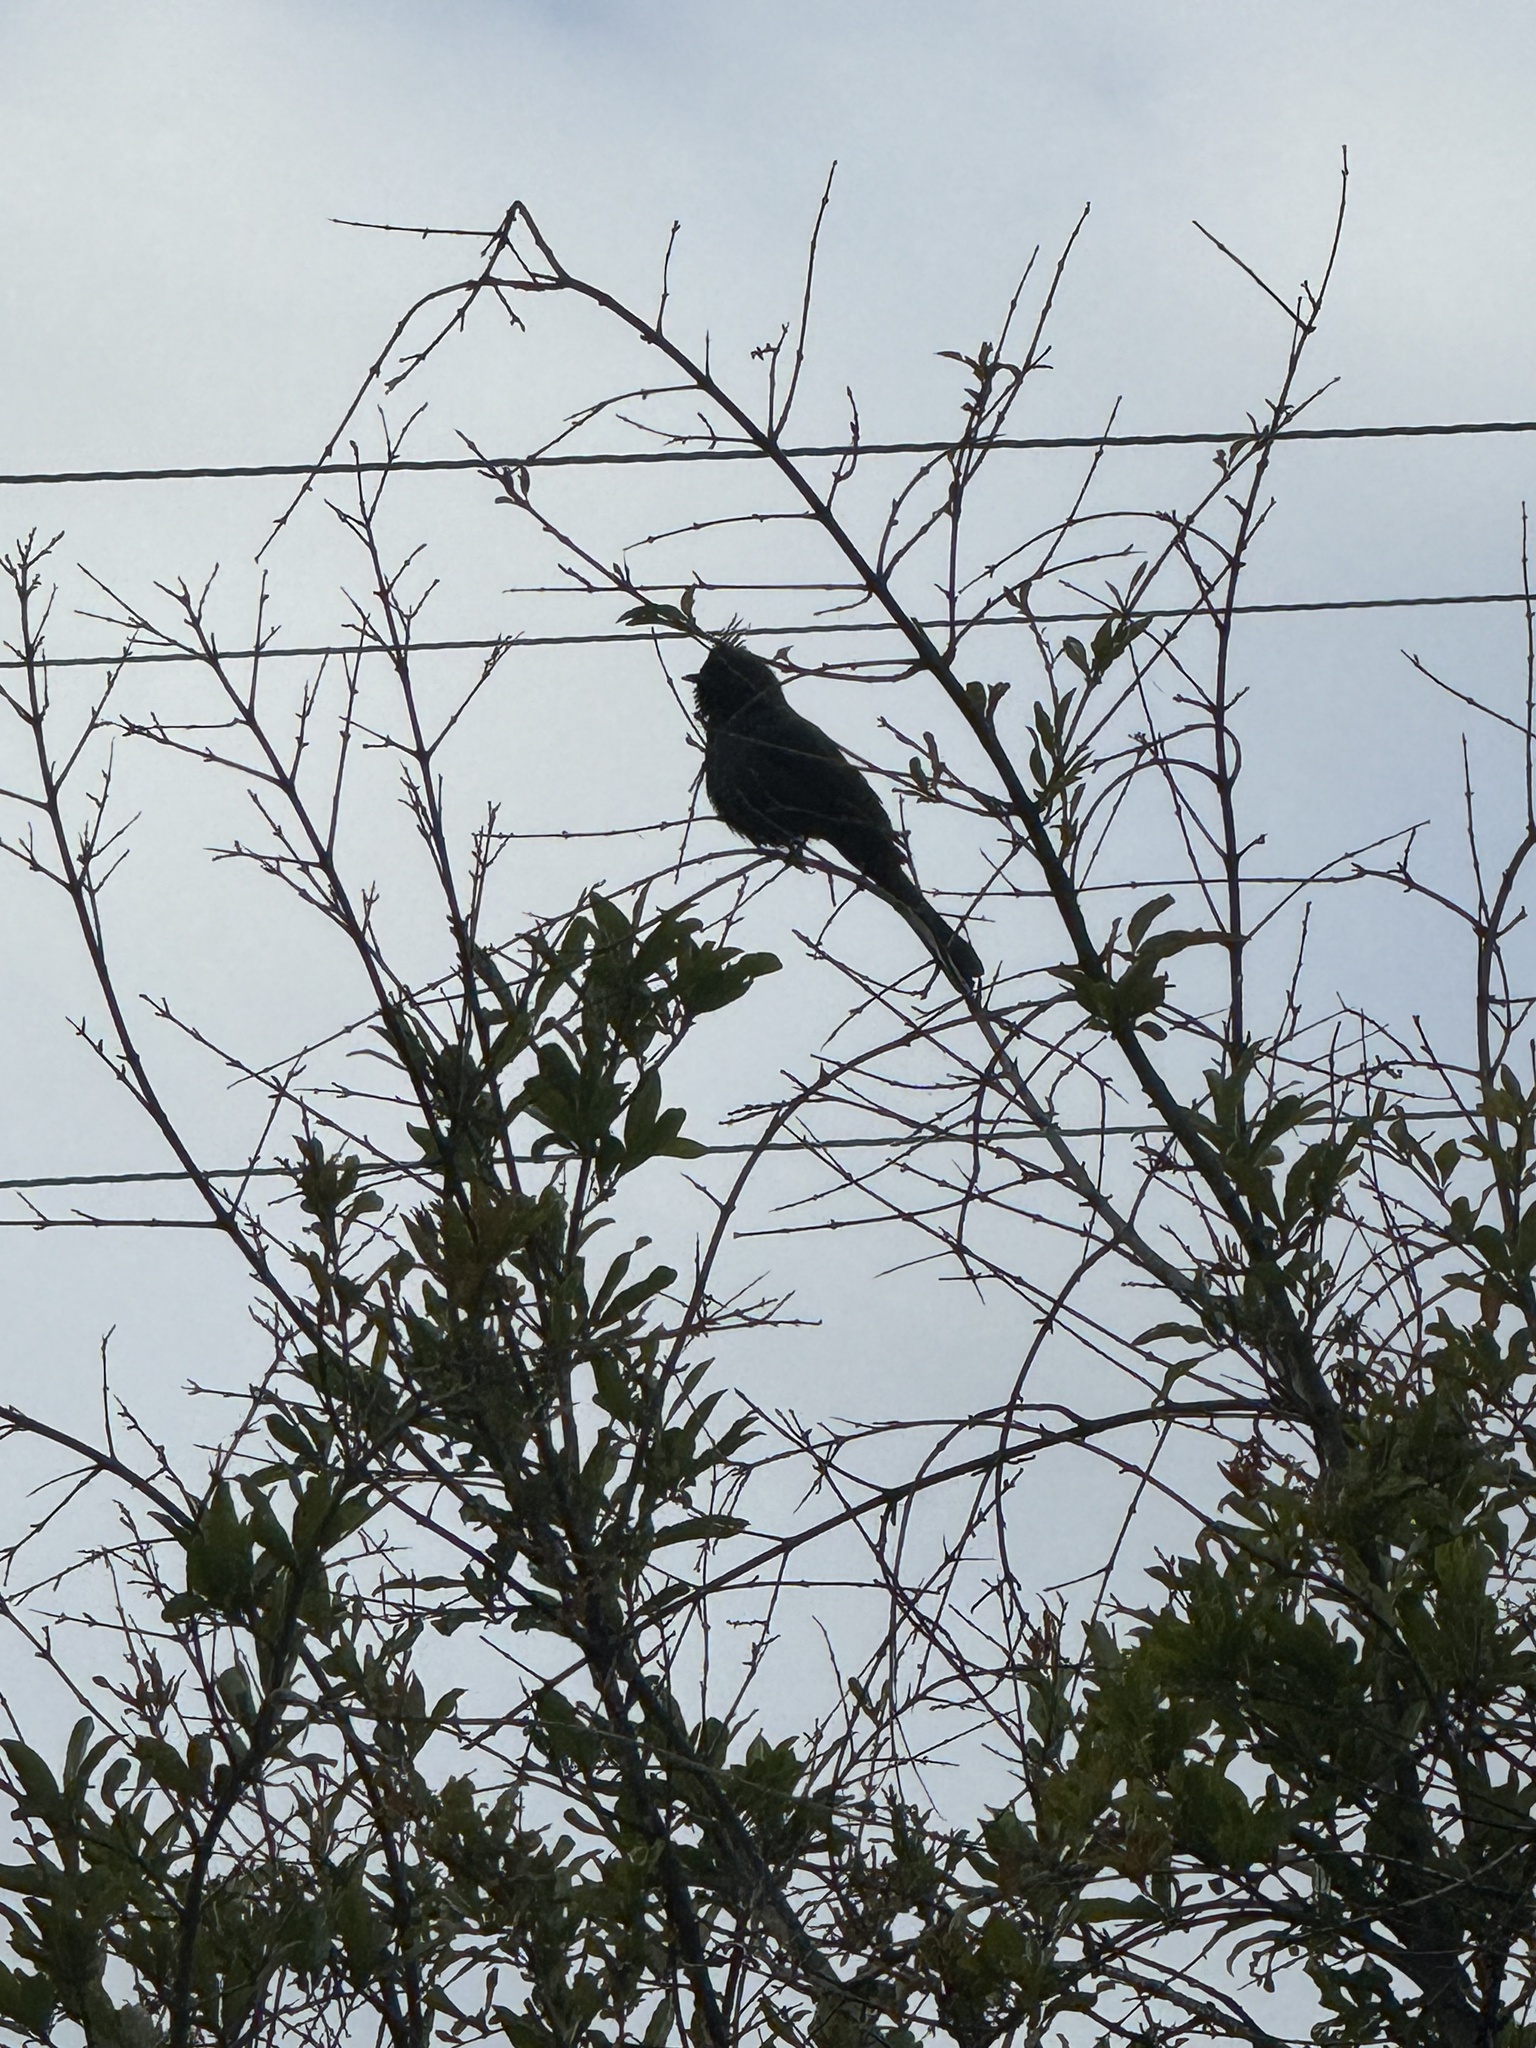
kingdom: Animalia
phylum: Chordata
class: Aves
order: Passeriformes
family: Ptilogonatidae
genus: Phainopepla
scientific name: Phainopepla nitens
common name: Phainopepla
